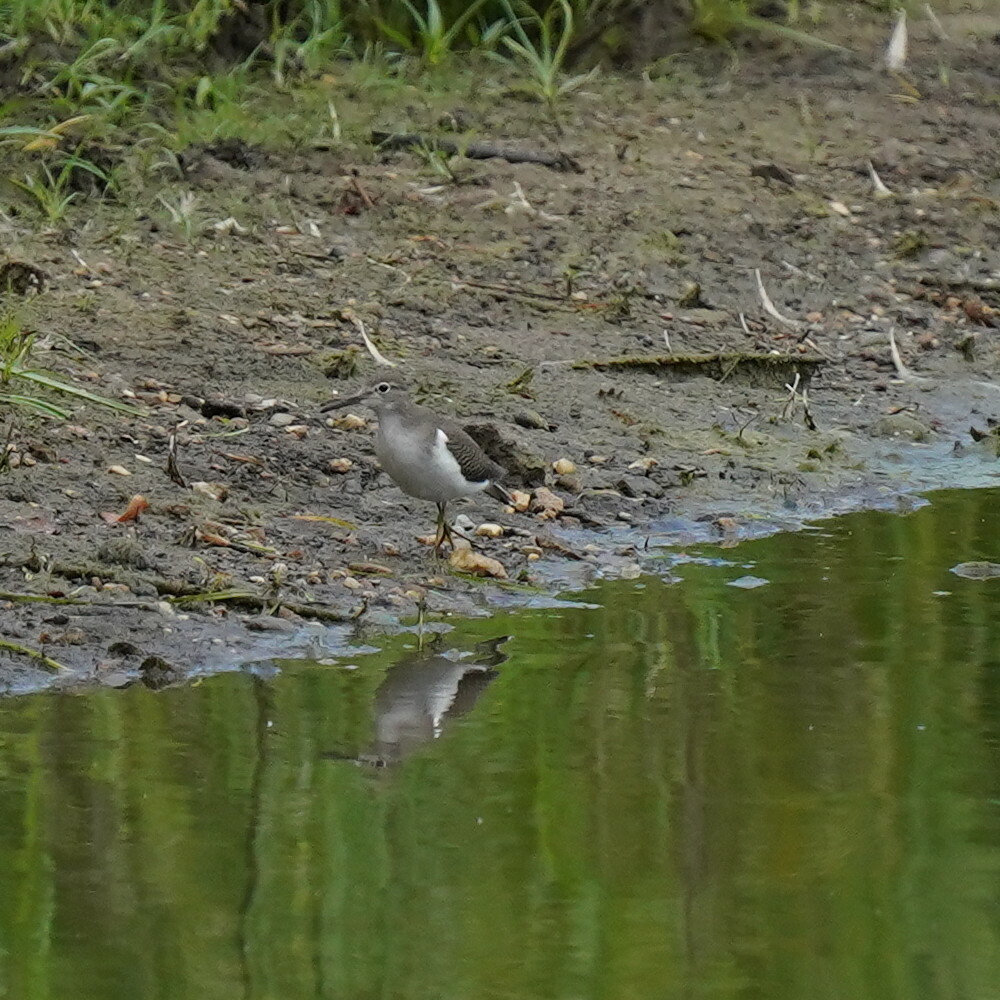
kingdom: Animalia
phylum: Chordata
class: Aves
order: Charadriiformes
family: Scolopacidae
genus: Actitis
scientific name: Actitis macularius
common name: Spotted sandpiper
